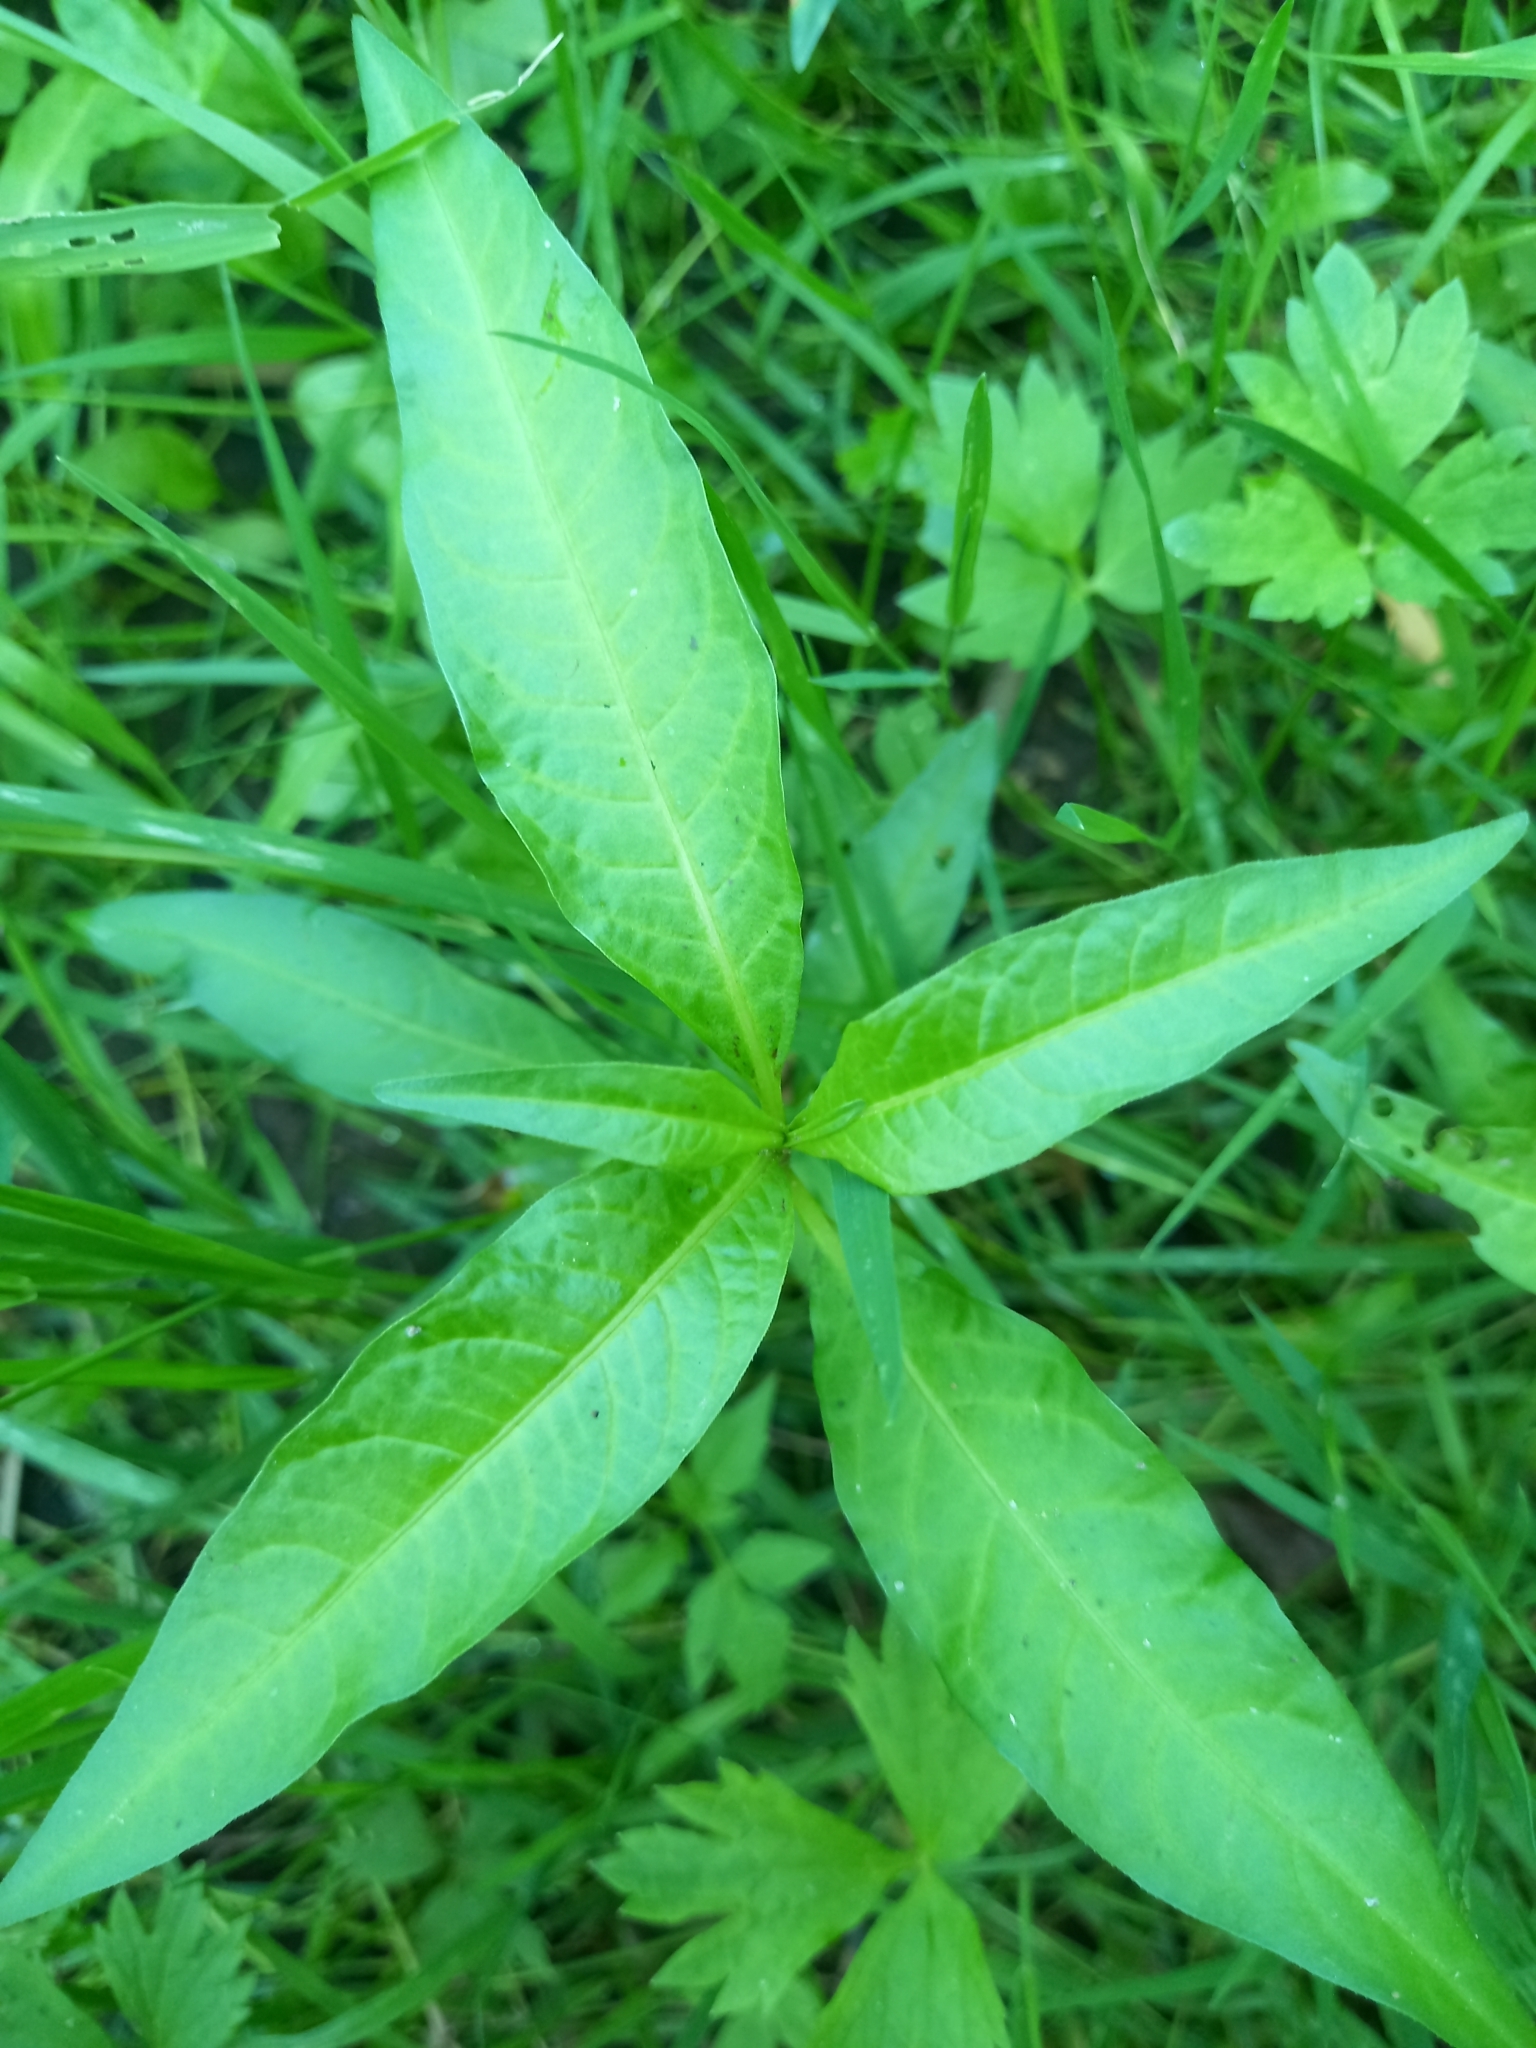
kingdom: Plantae
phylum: Tracheophyta
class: Magnoliopsida
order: Caryophyllales
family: Polygonaceae
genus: Persicaria
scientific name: Persicaria amphibia
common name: Amphibious bistort
